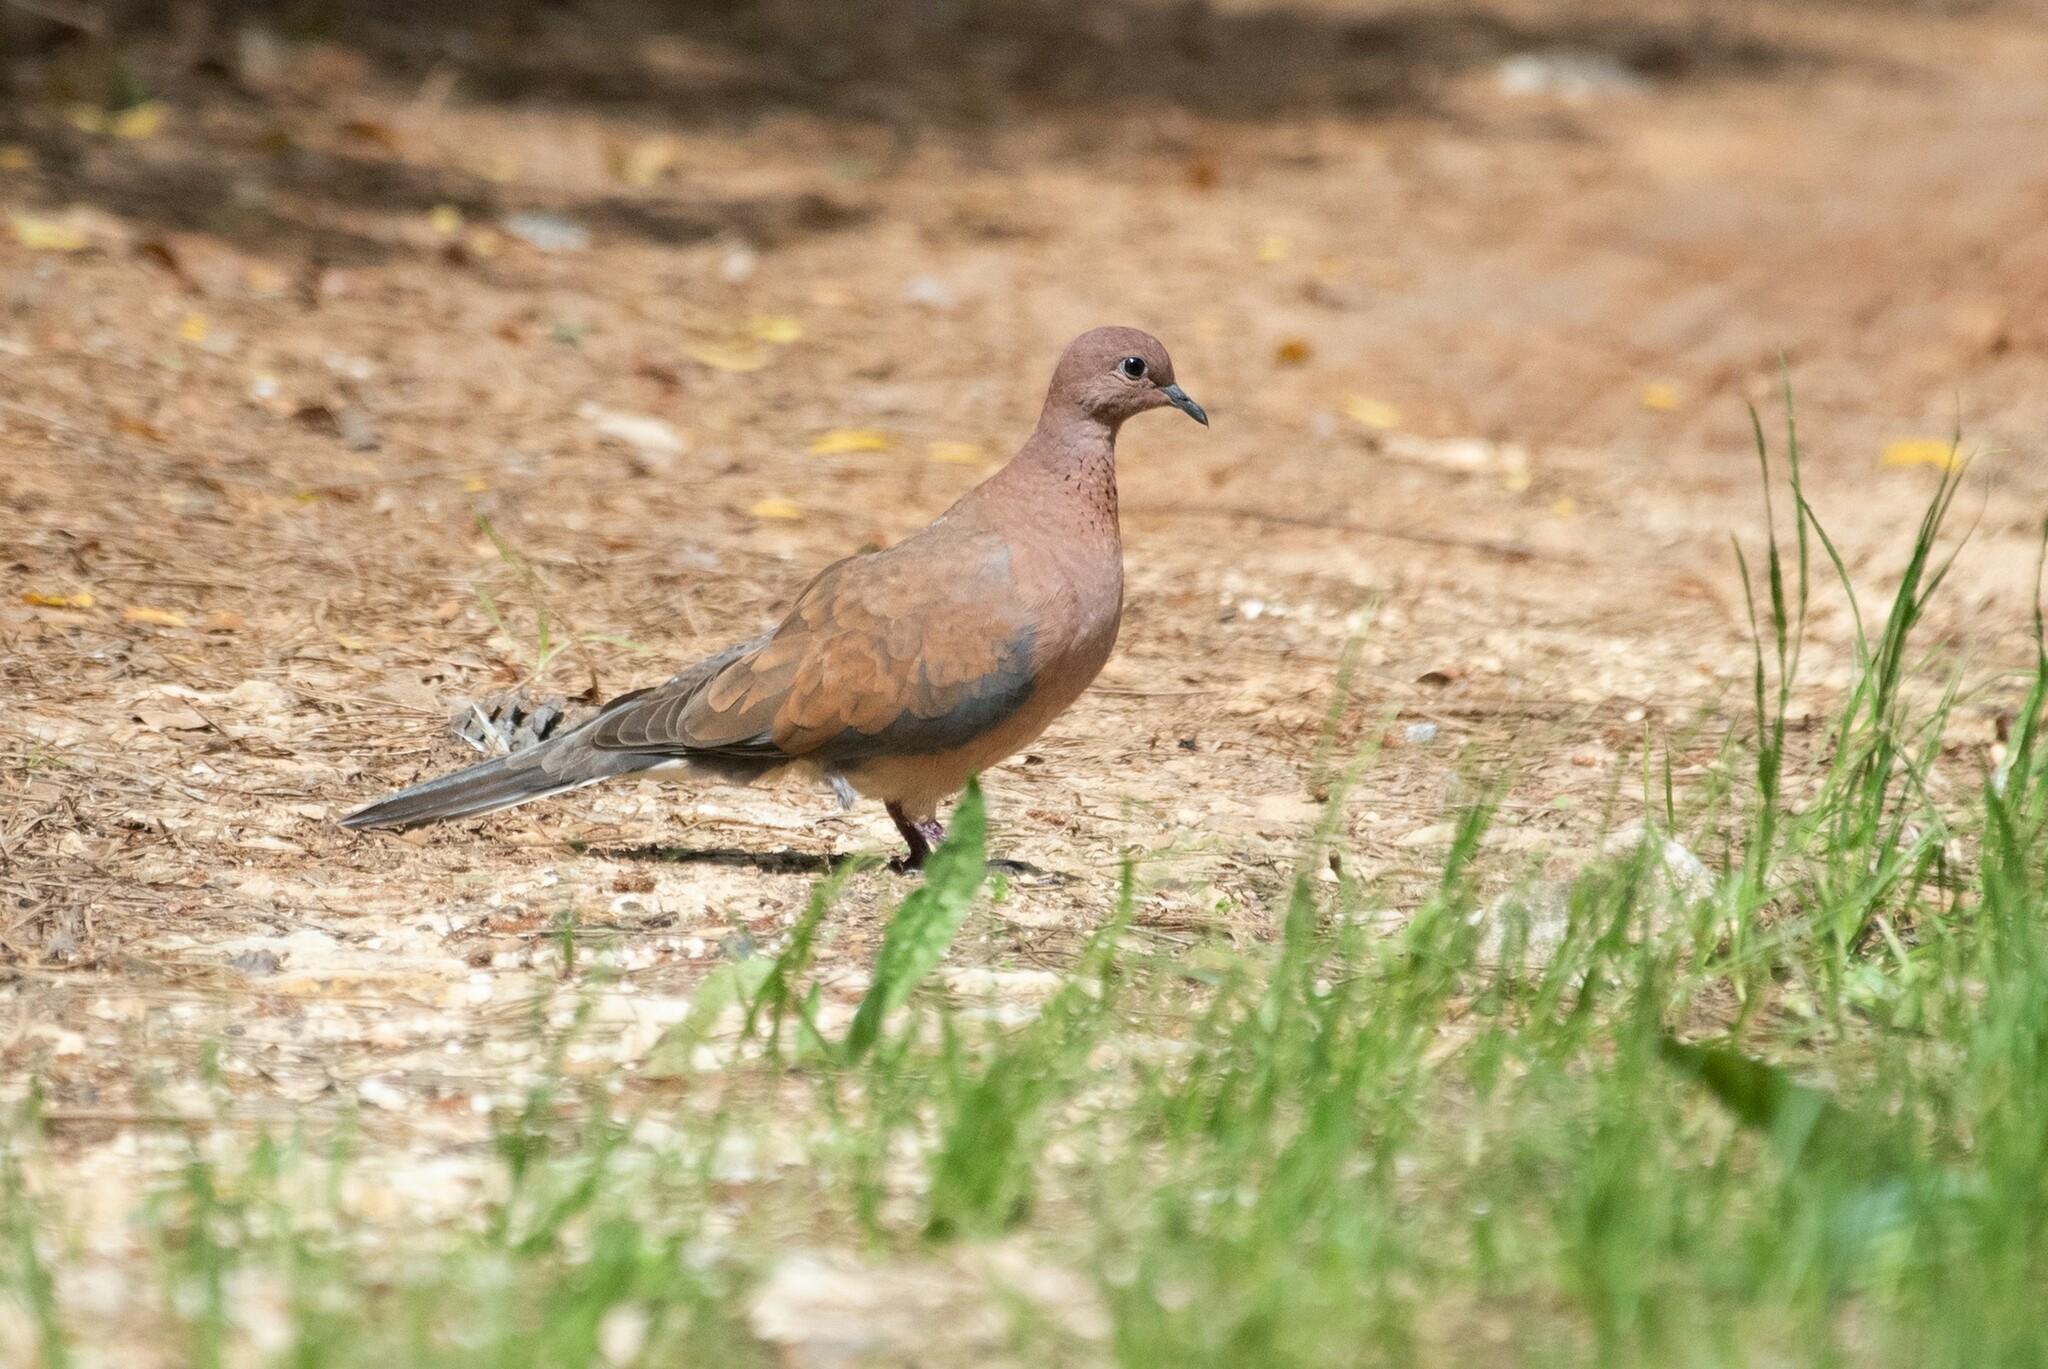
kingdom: Animalia
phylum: Chordata
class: Aves
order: Columbiformes
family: Columbidae
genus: Spilopelia
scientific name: Spilopelia senegalensis
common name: Laughing dove
